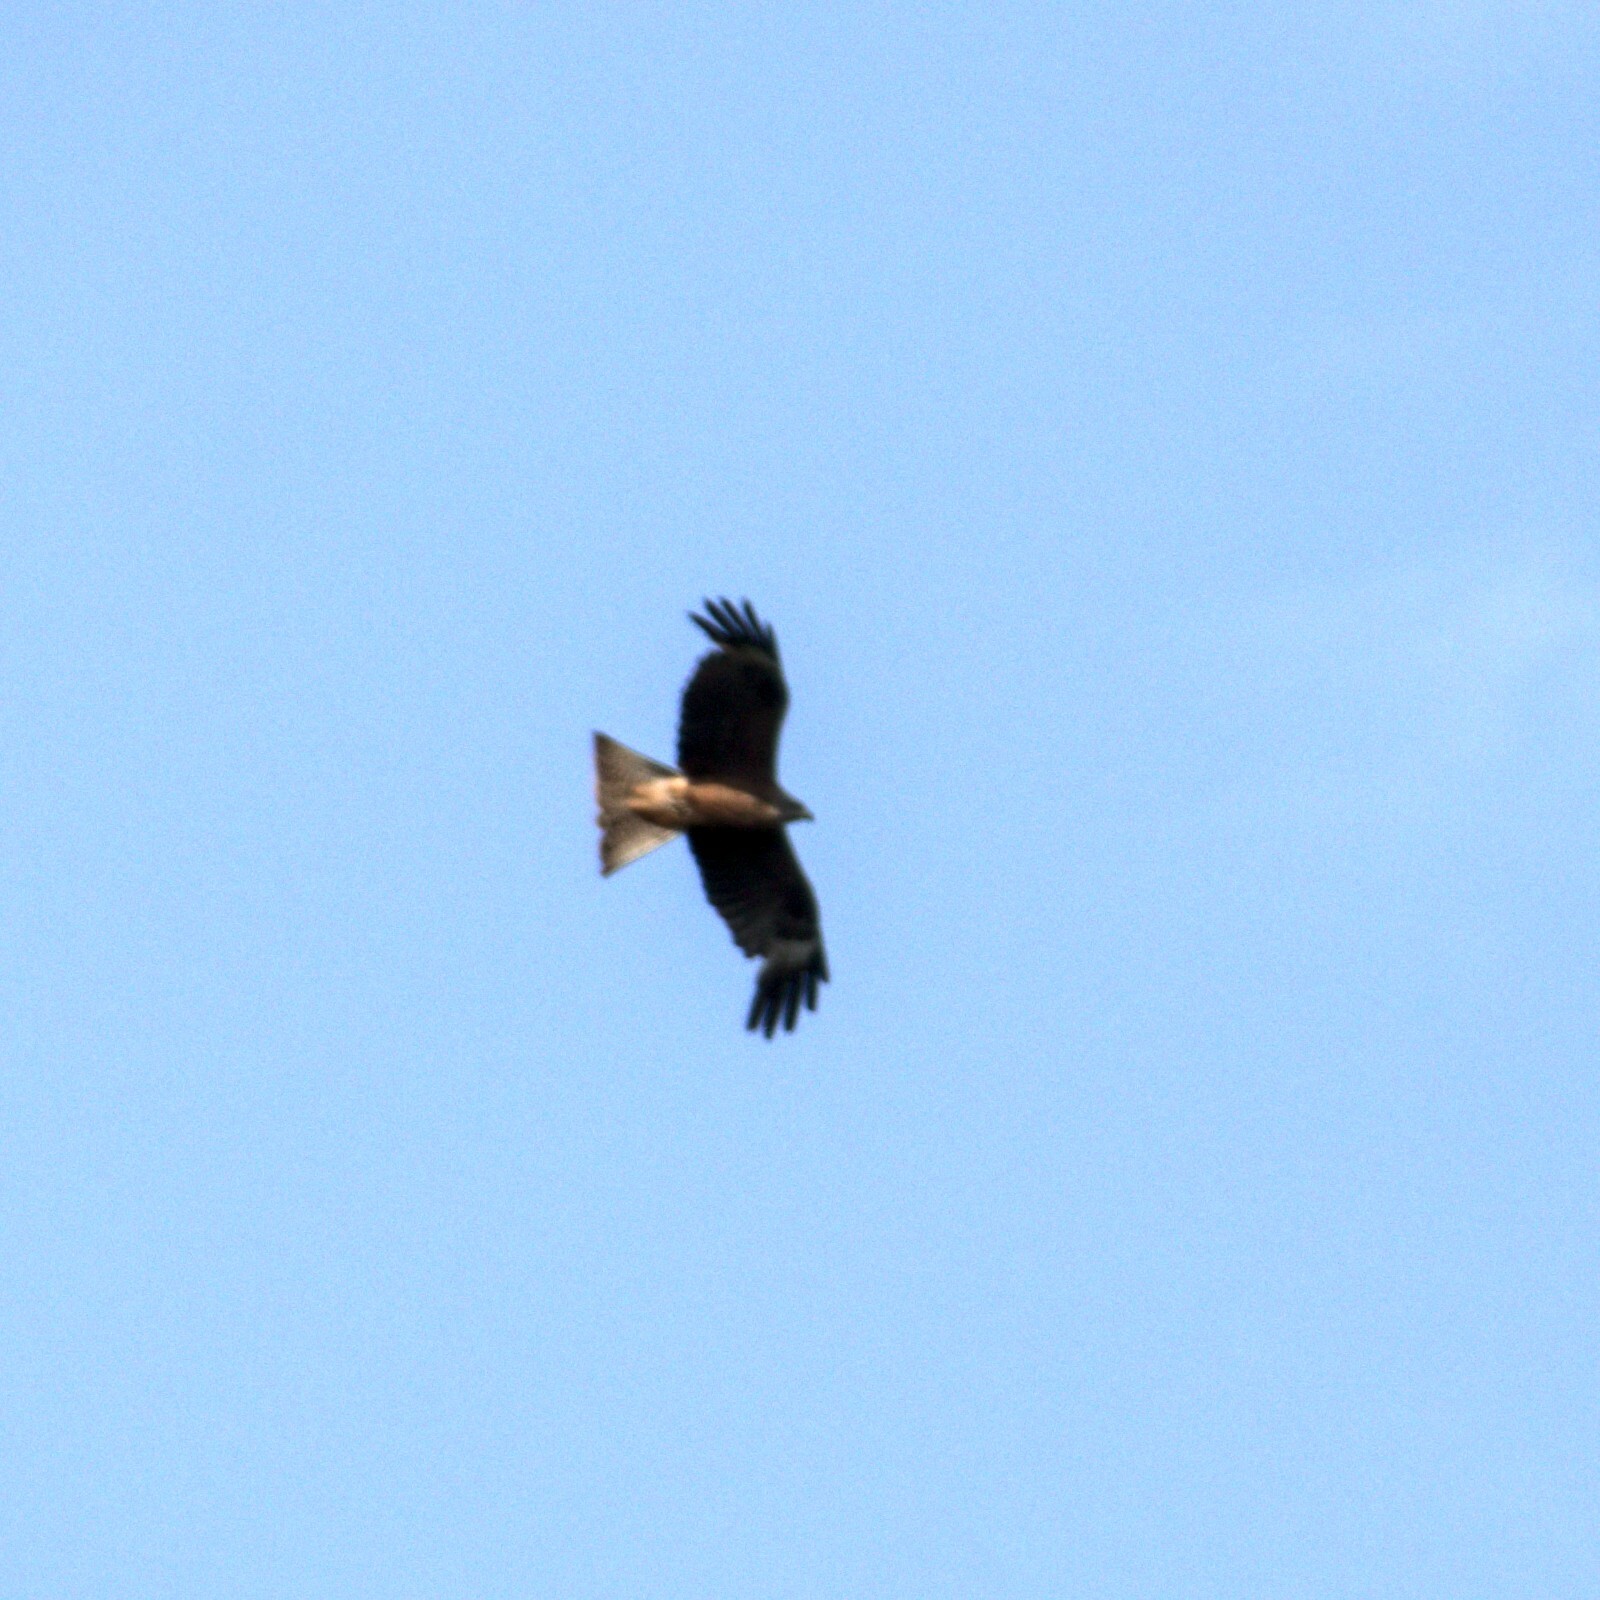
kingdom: Animalia
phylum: Chordata
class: Aves
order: Accipitriformes
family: Accipitridae
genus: Milvus
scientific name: Milvus migrans
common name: Black kite
